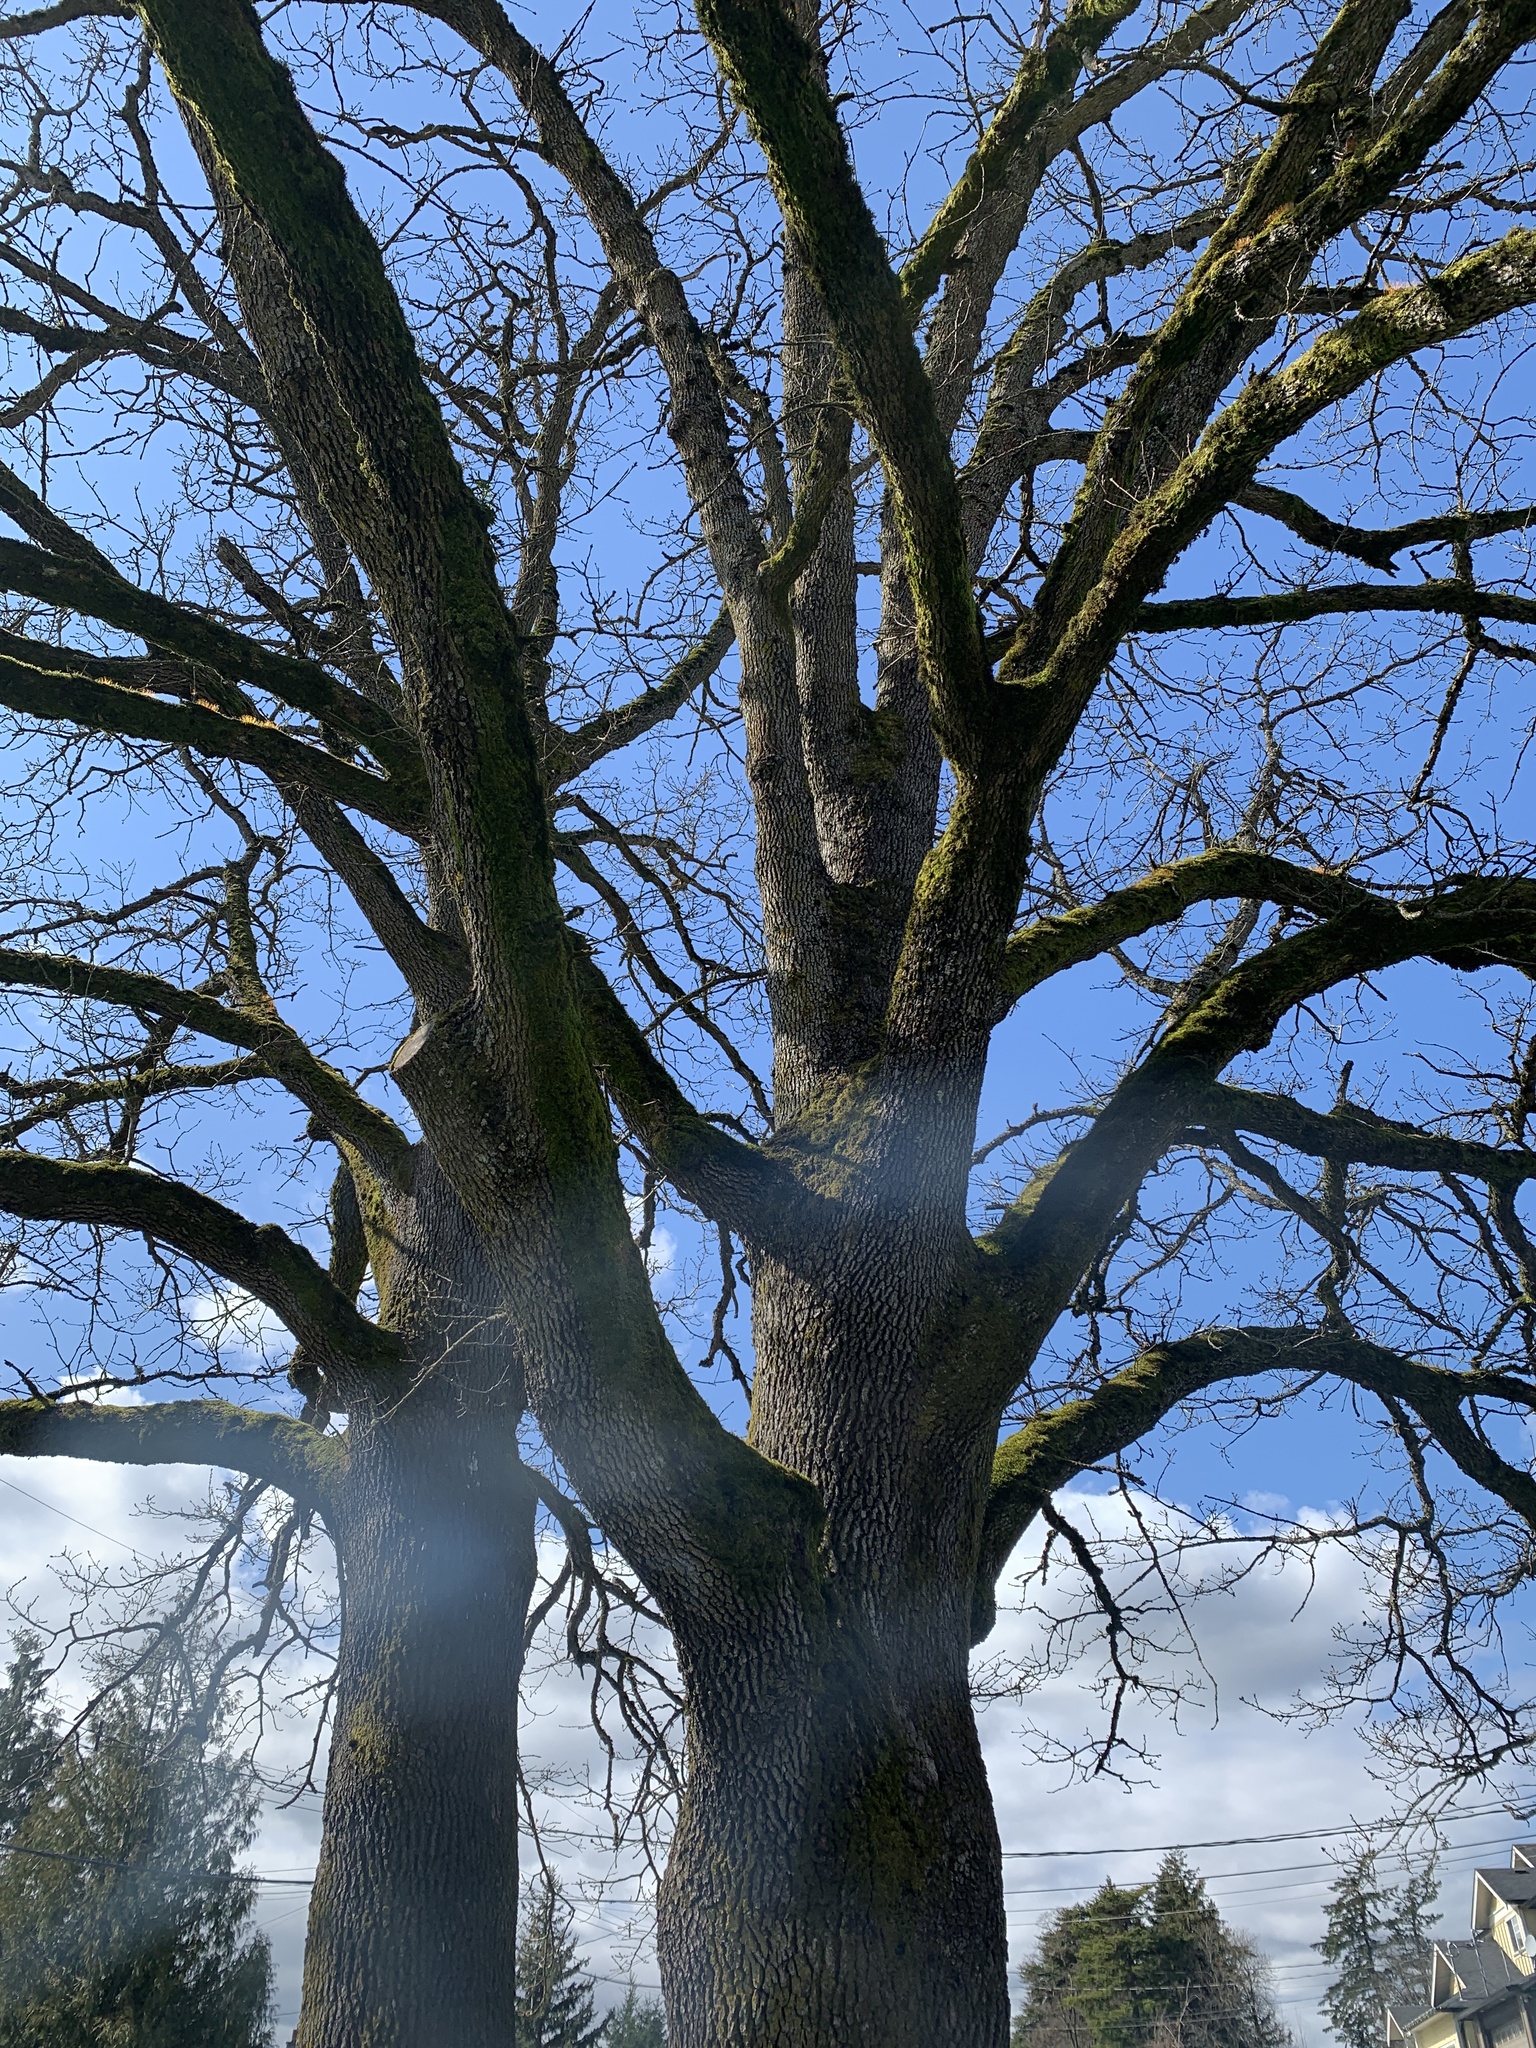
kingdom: Plantae
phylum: Tracheophyta
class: Magnoliopsida
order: Fagales
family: Fagaceae
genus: Quercus
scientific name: Quercus garryana
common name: Garry oak
